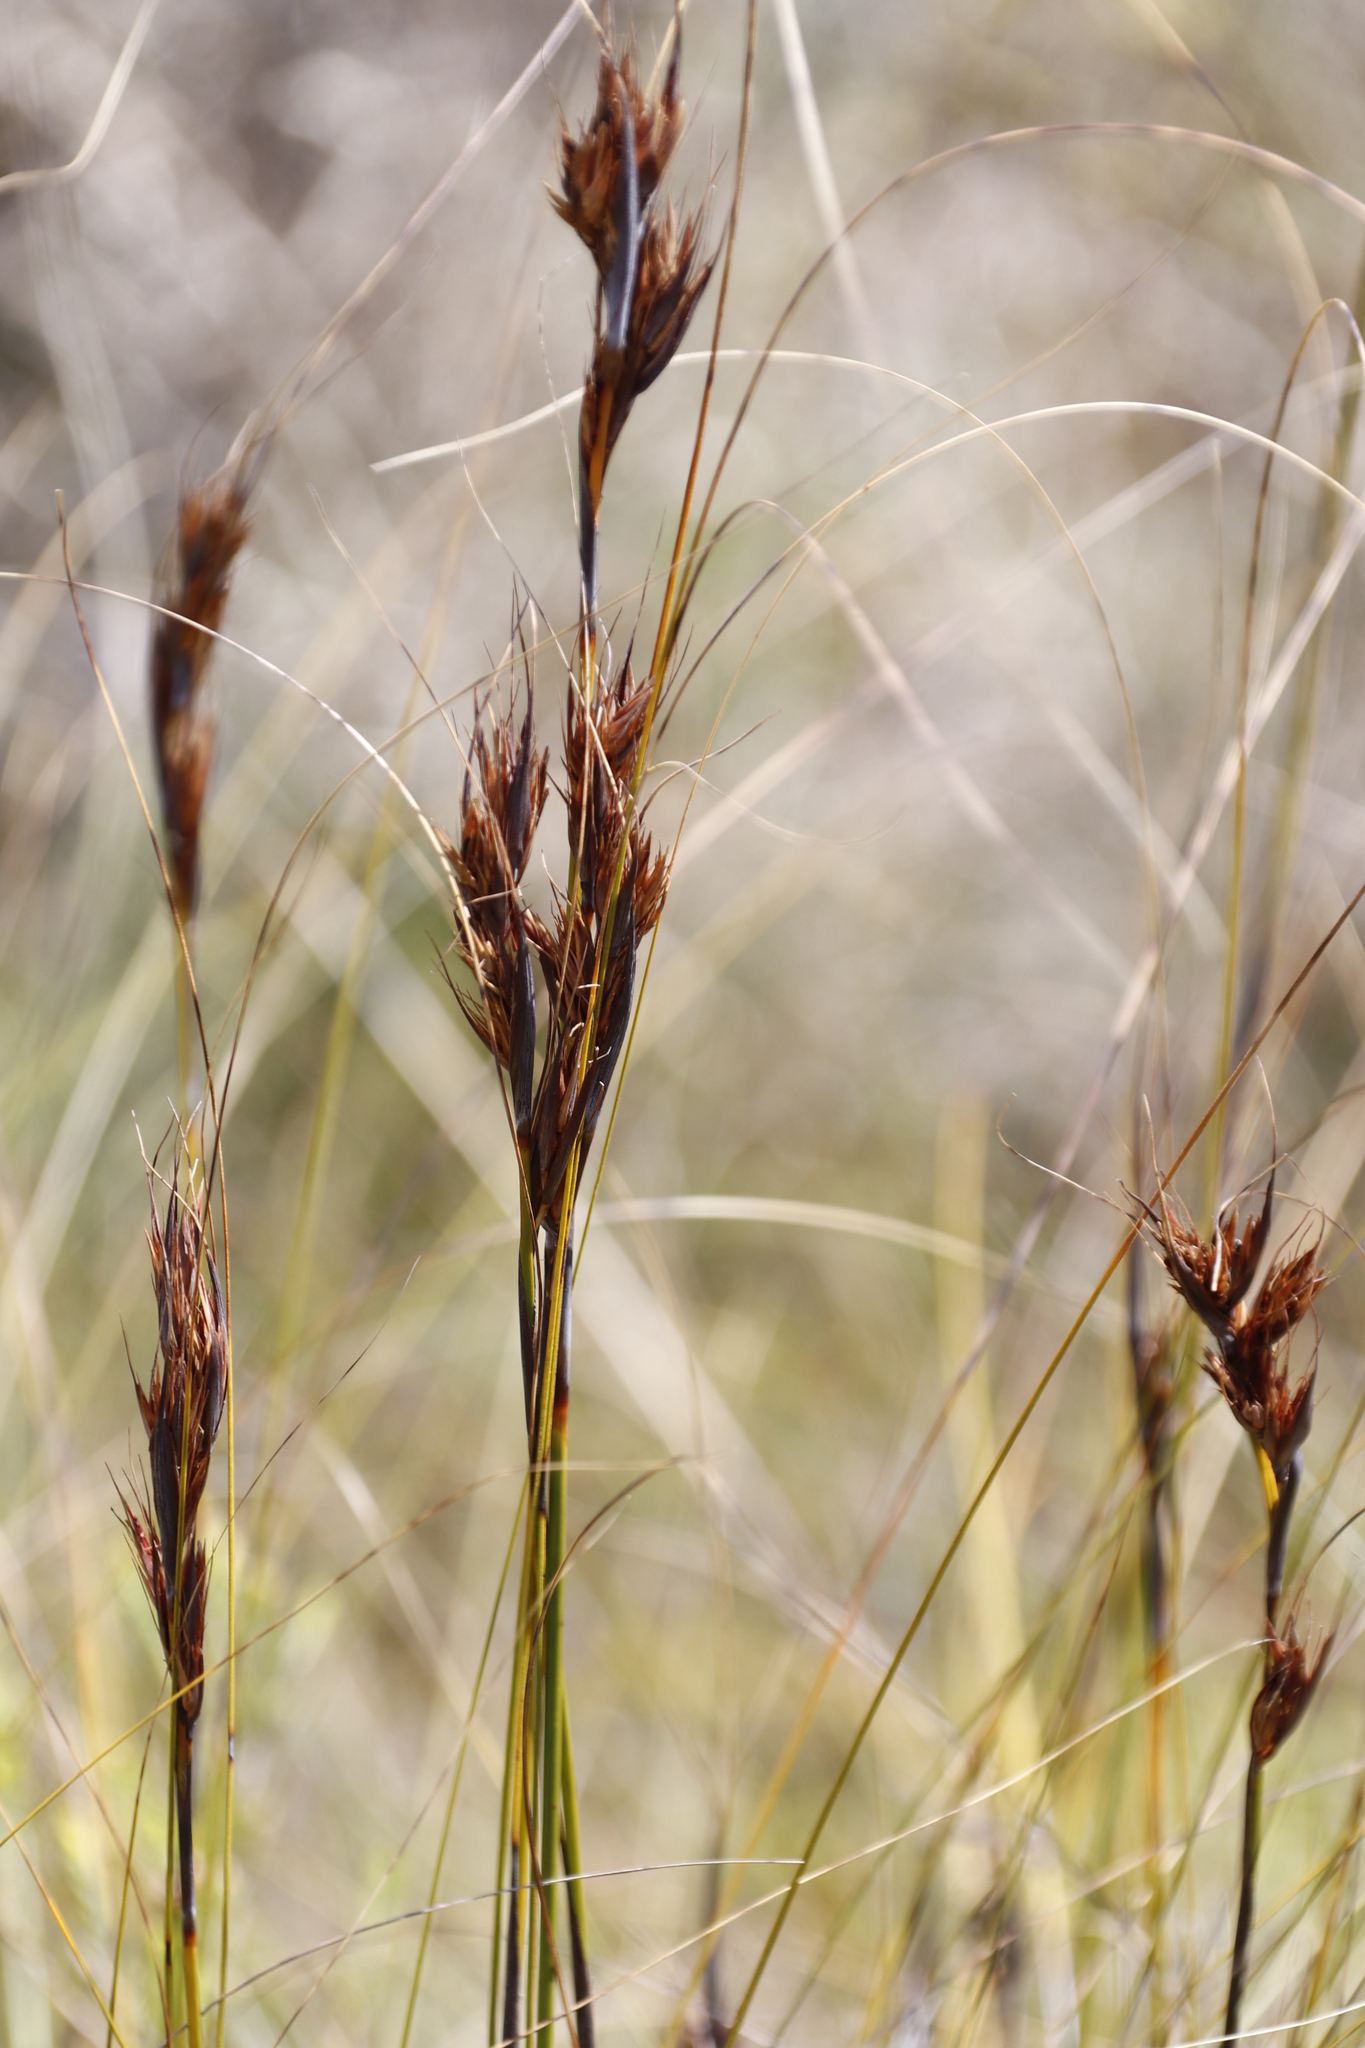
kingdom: Plantae
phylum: Tracheophyta
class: Liliopsida
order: Poales
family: Cyperaceae
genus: Tetraria
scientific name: Tetraria ustulata
